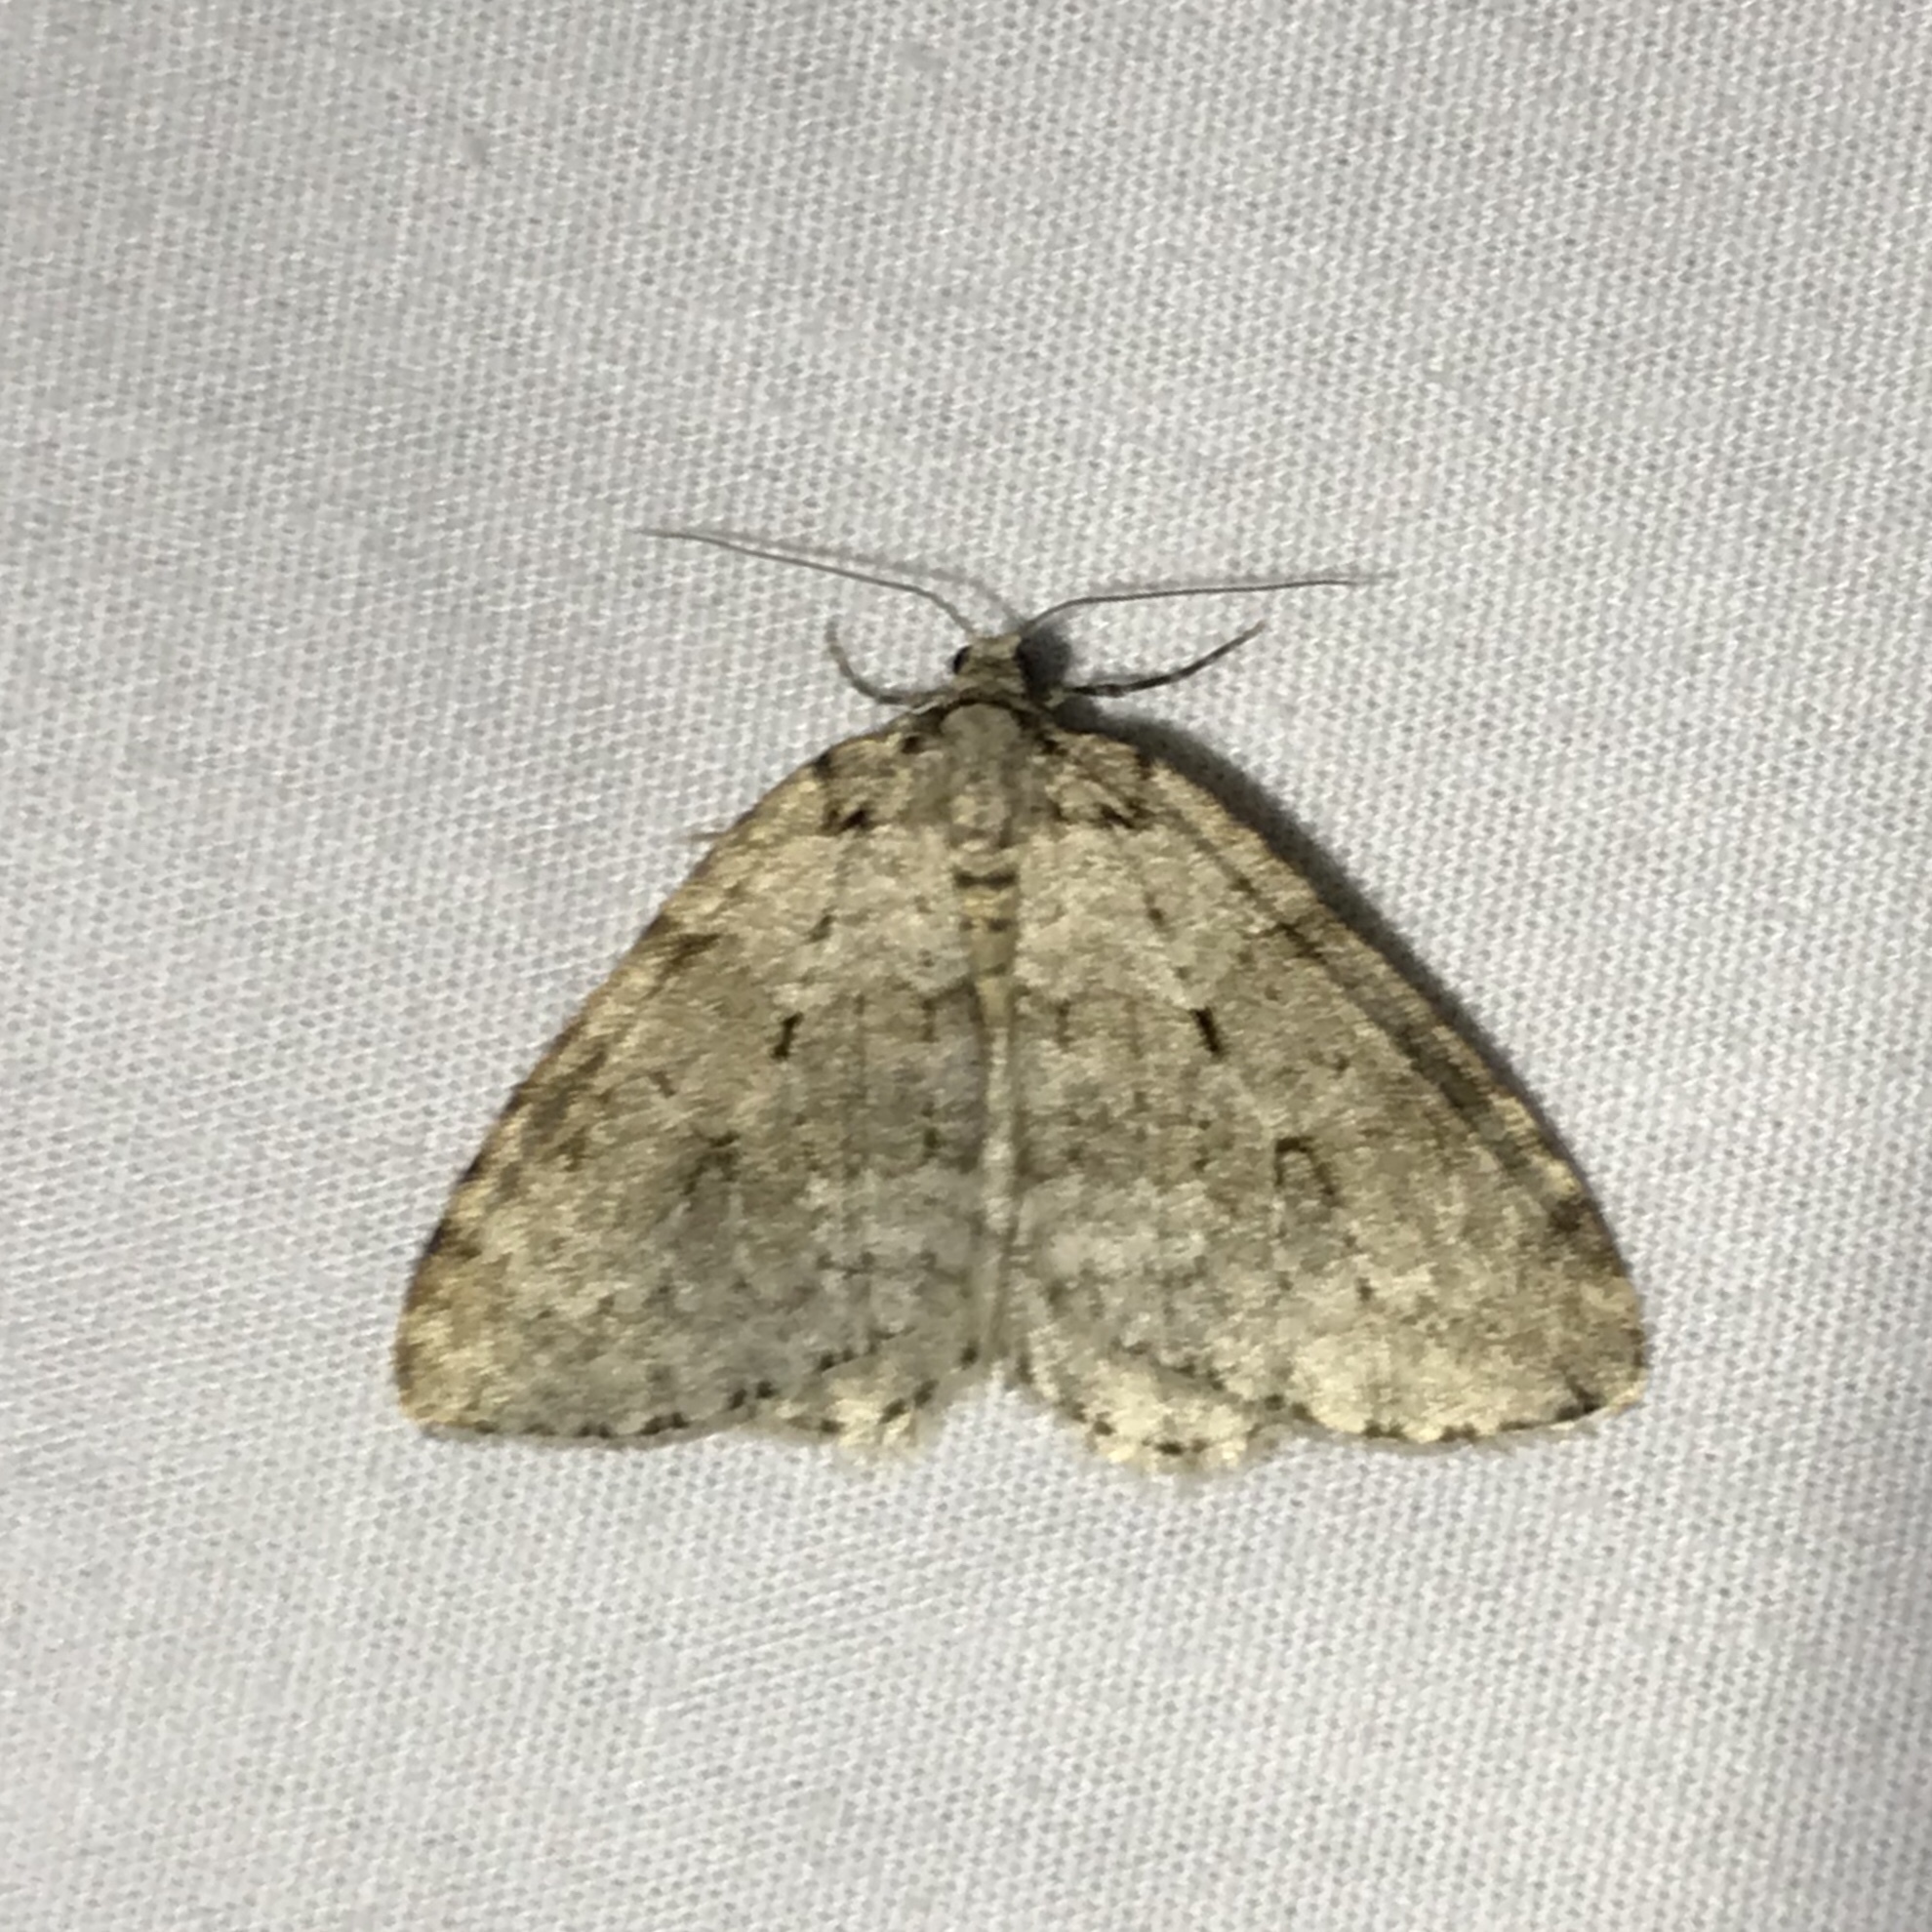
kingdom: Animalia
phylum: Arthropoda
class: Insecta
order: Lepidoptera
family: Geometridae
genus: Epirrita
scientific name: Epirrita autumnata
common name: Autumnal moth
